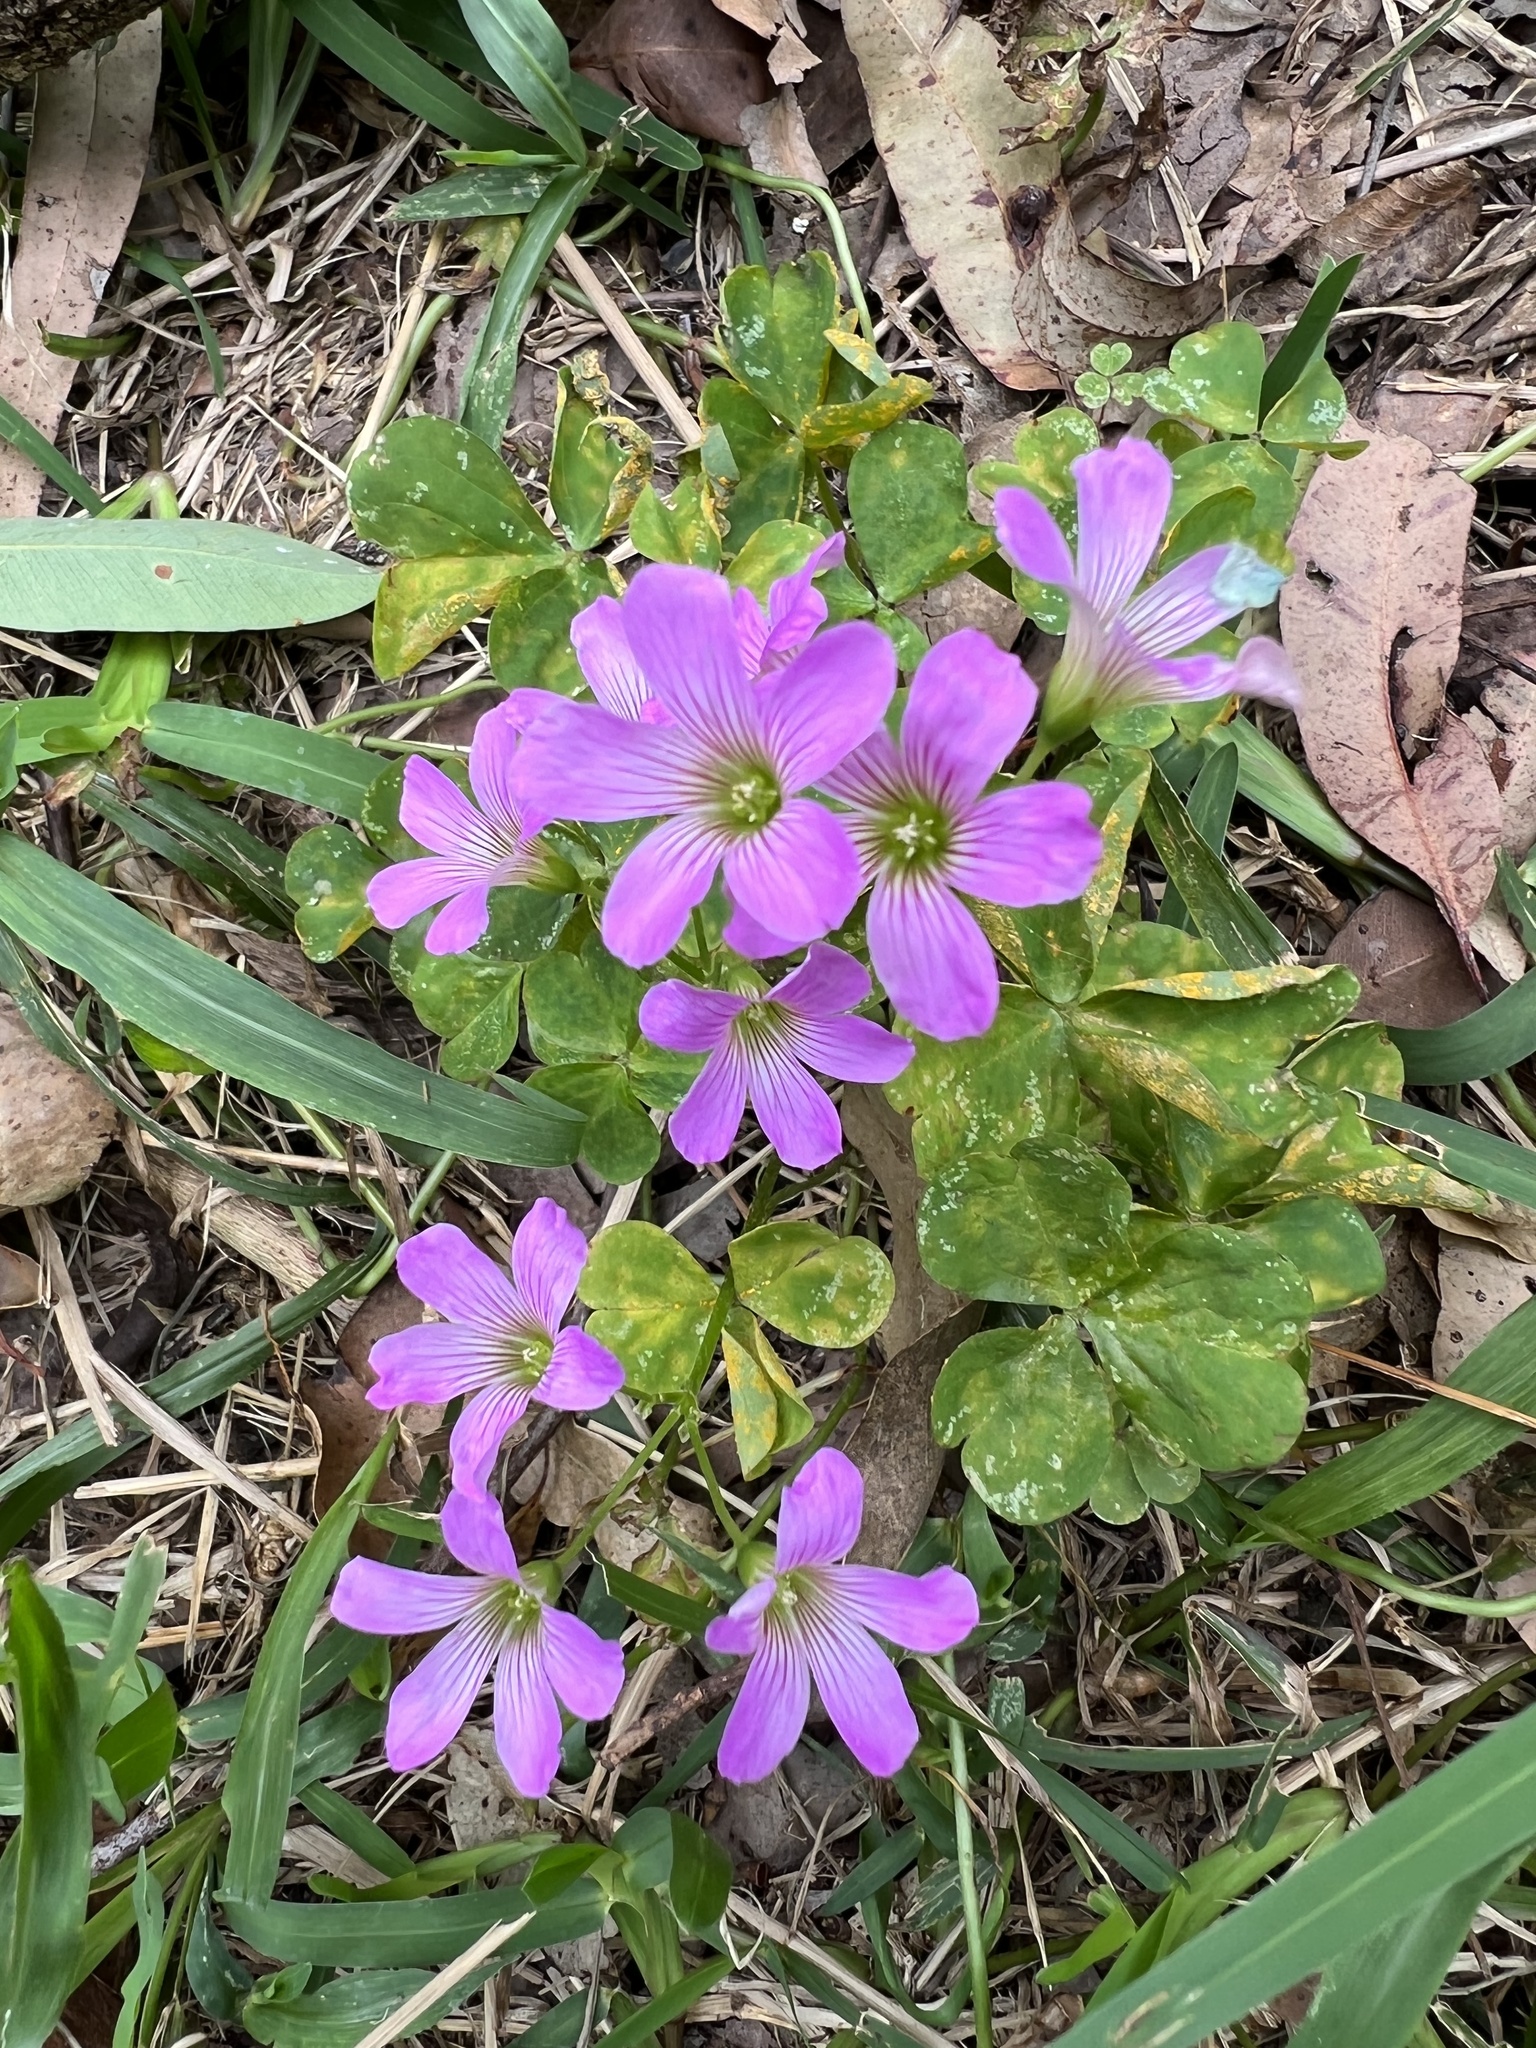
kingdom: Plantae
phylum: Tracheophyta
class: Magnoliopsida
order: Oxalidales
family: Oxalidaceae
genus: Oxalis
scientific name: Oxalis debilis
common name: Large-flowered pink-sorrel
